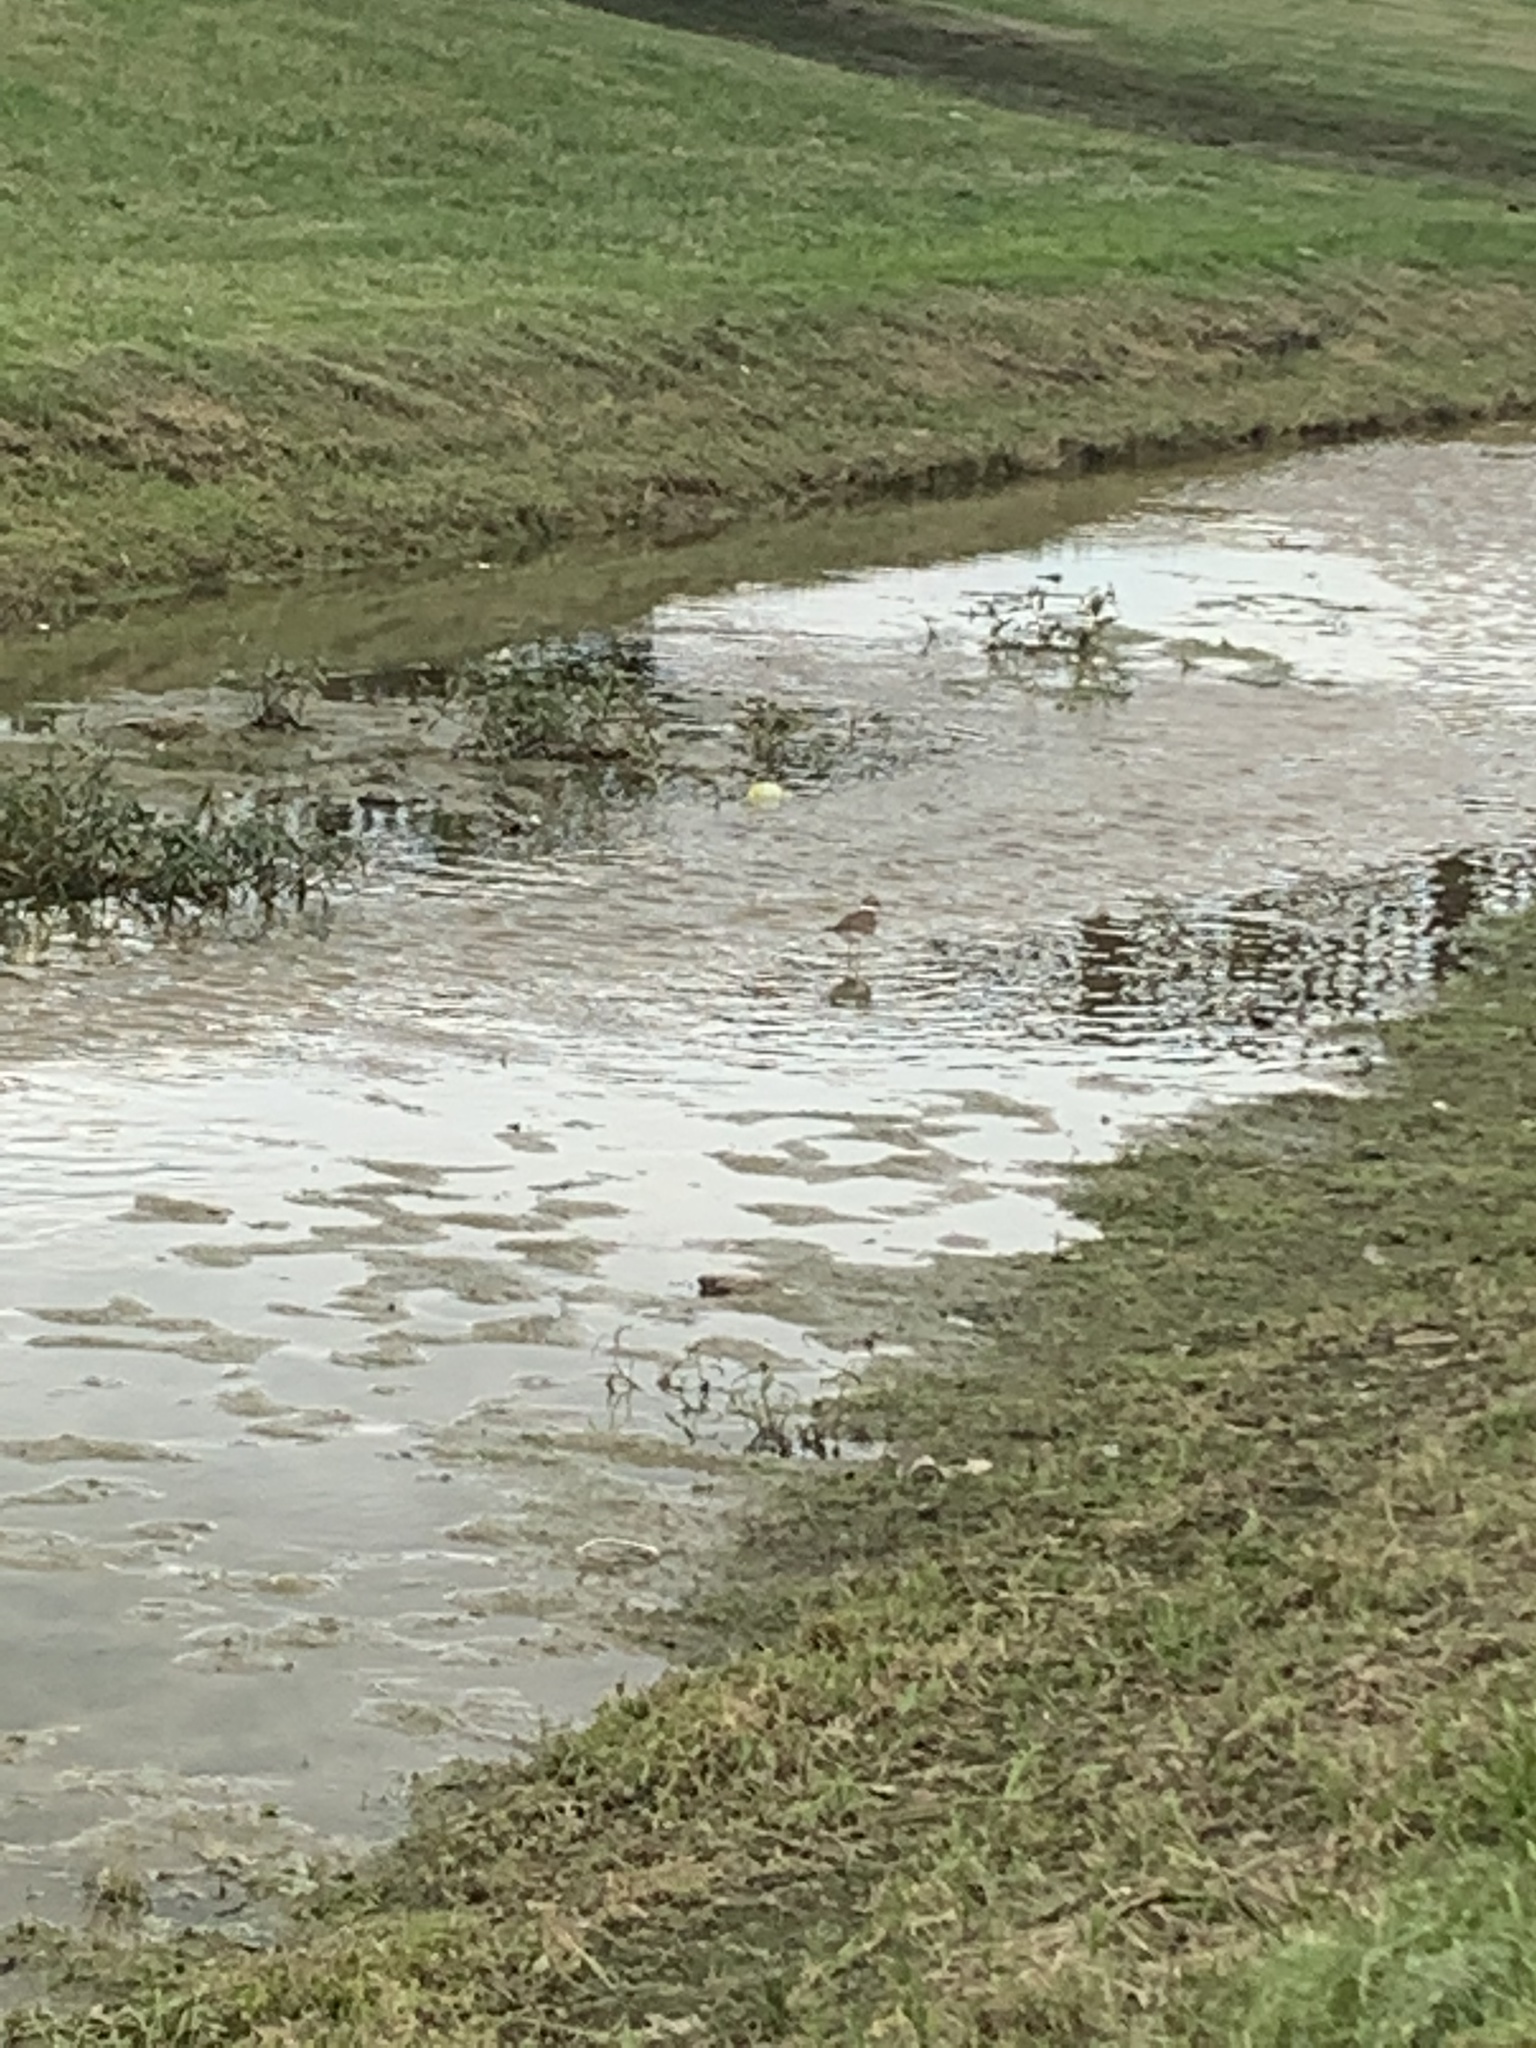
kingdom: Animalia
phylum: Chordata
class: Aves
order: Charadriiformes
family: Charadriidae
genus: Charadrius
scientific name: Charadrius vociferus
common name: Killdeer
